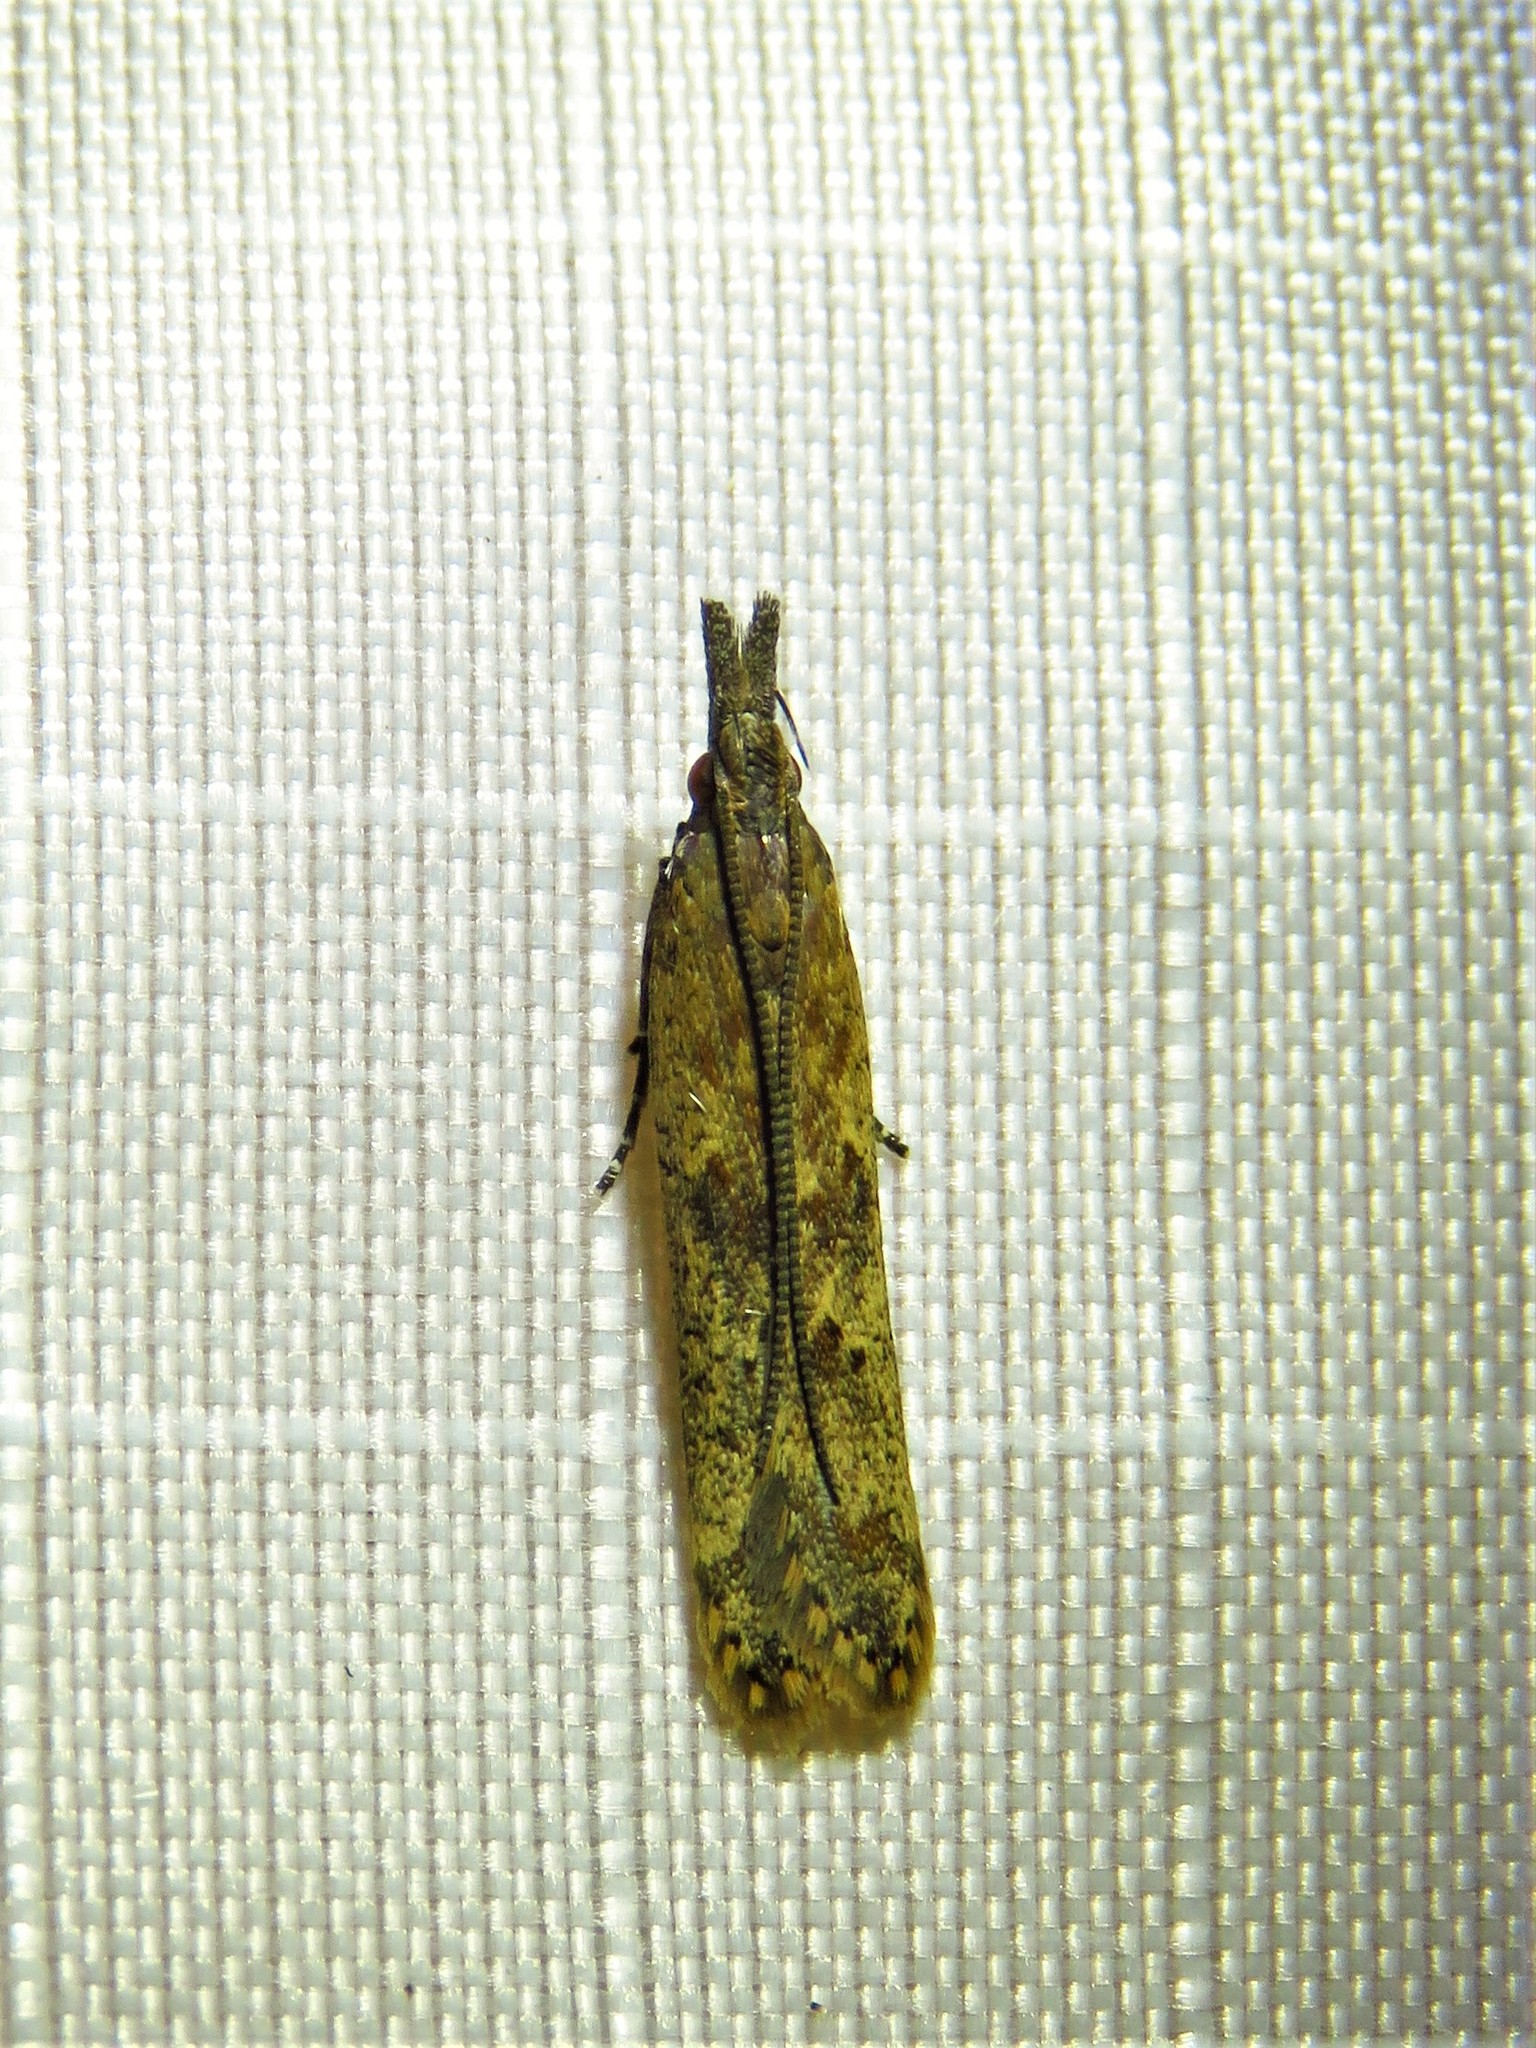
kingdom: Animalia
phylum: Arthropoda
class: Insecta
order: Lepidoptera
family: Gelechiidae
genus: Dichomeris
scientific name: Dichomeris ligulella
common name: Moth
